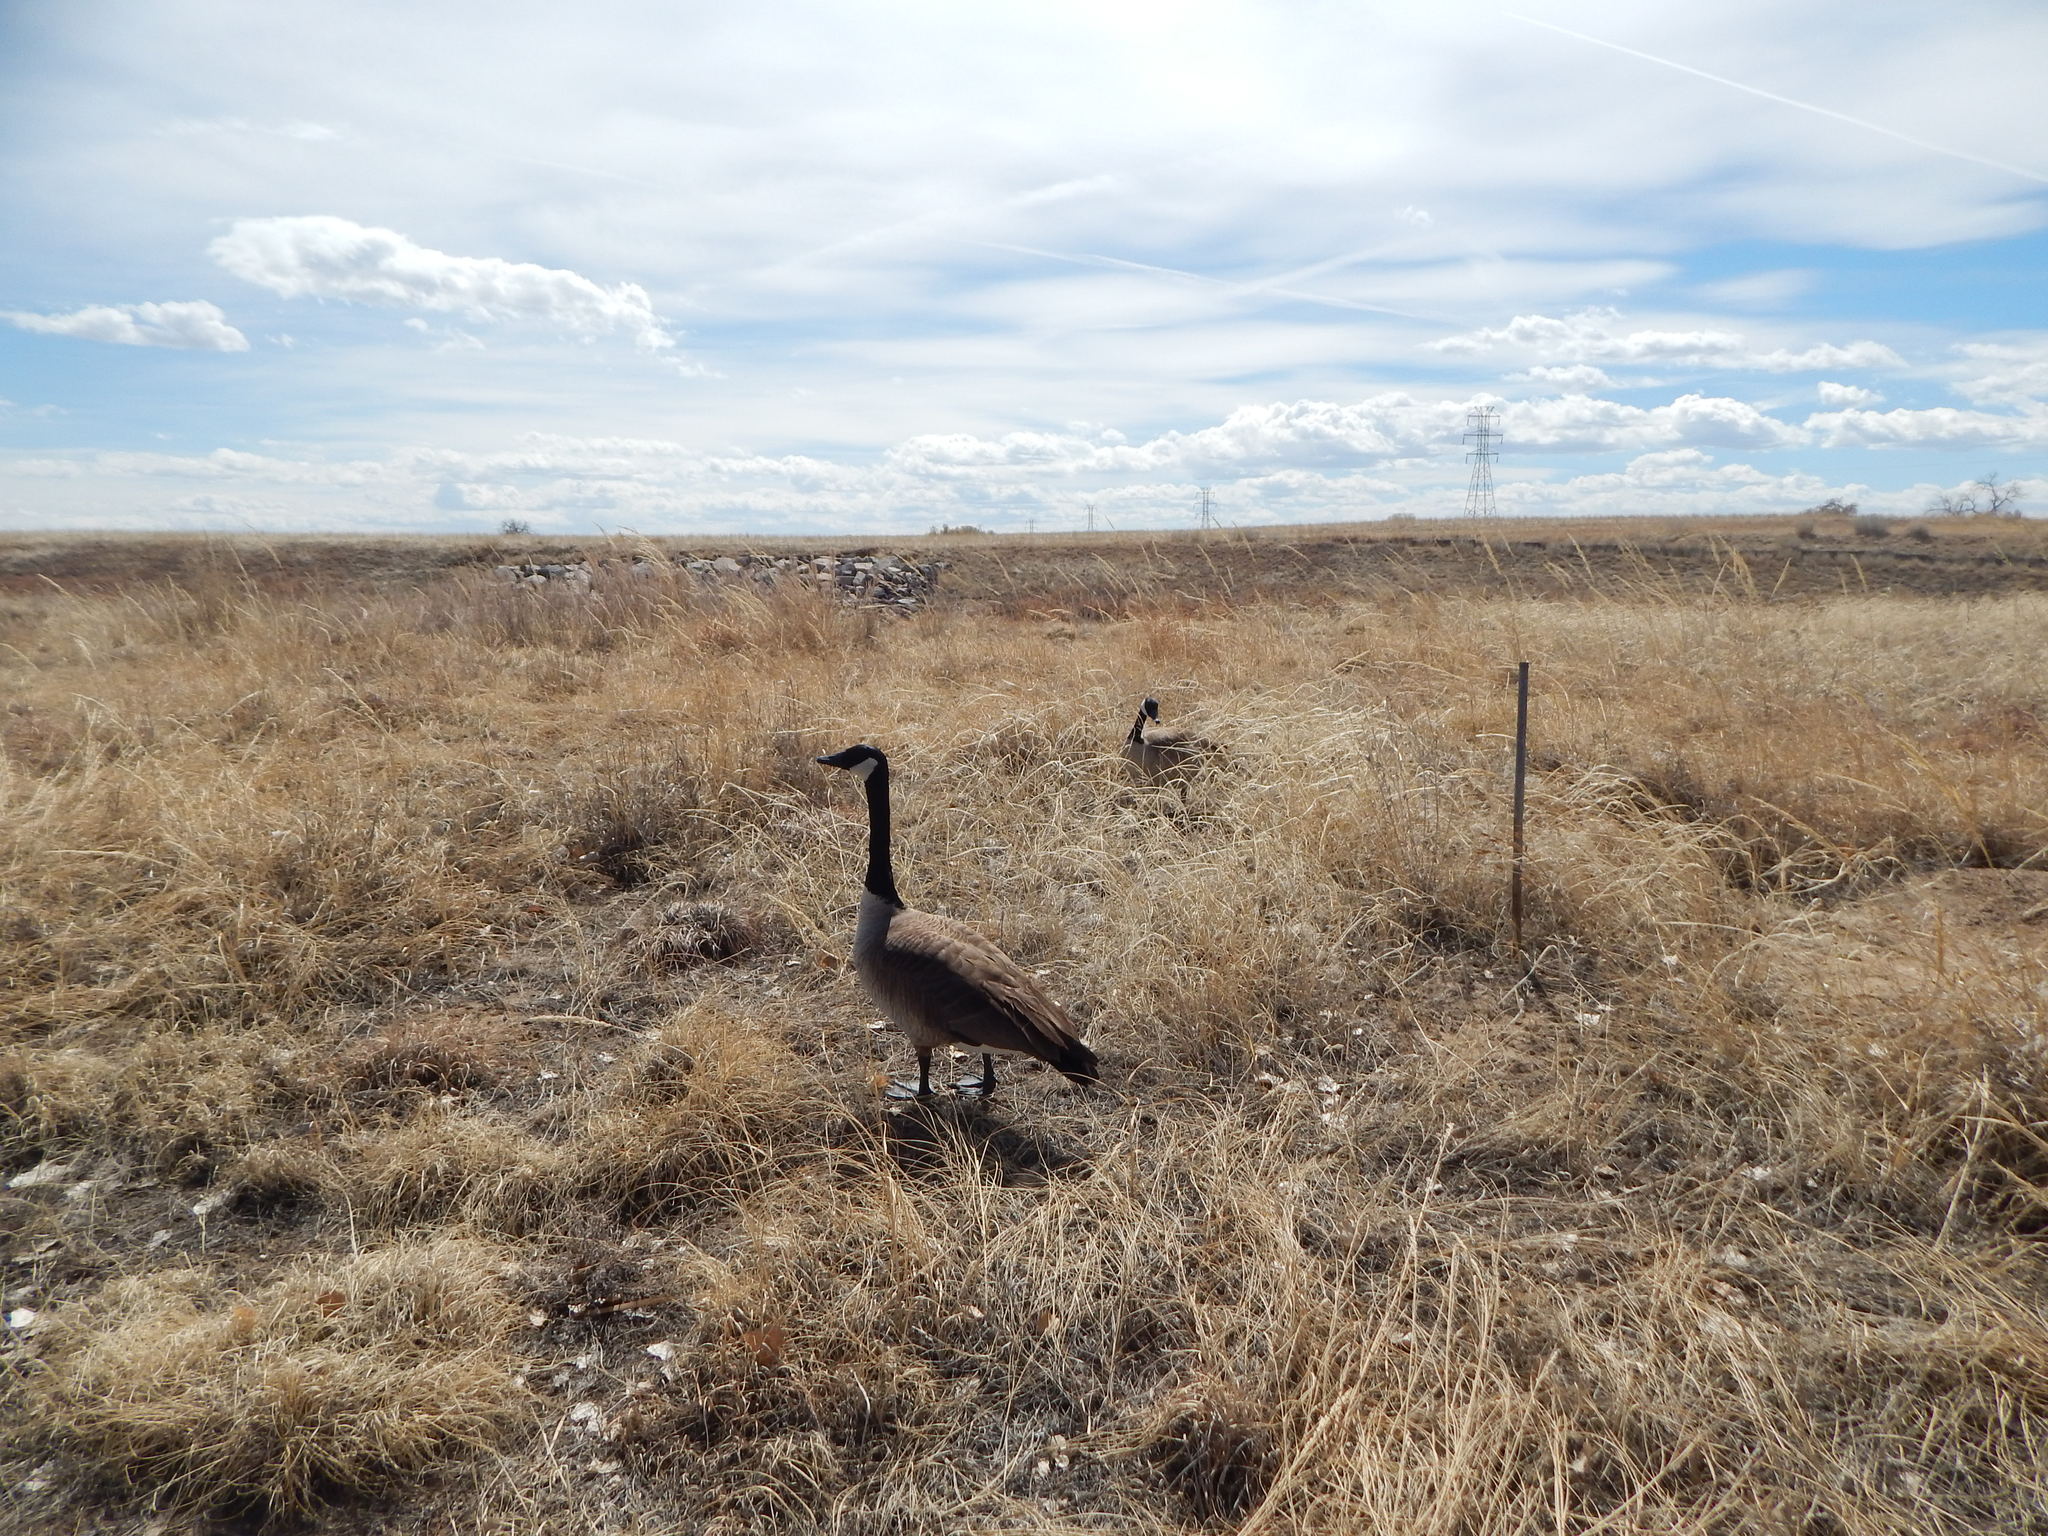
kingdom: Animalia
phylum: Chordata
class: Aves
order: Anseriformes
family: Anatidae
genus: Branta
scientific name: Branta canadensis
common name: Canada goose
